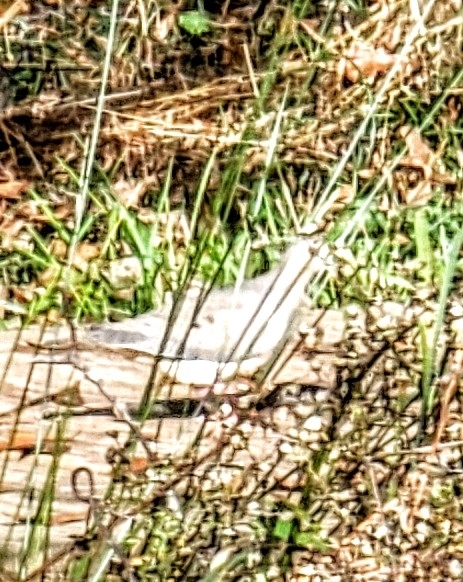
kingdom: Animalia
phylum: Chordata
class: Aves
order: Columbiformes
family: Columbidae
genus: Zenaida
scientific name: Zenaida macroura
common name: Mourning dove
